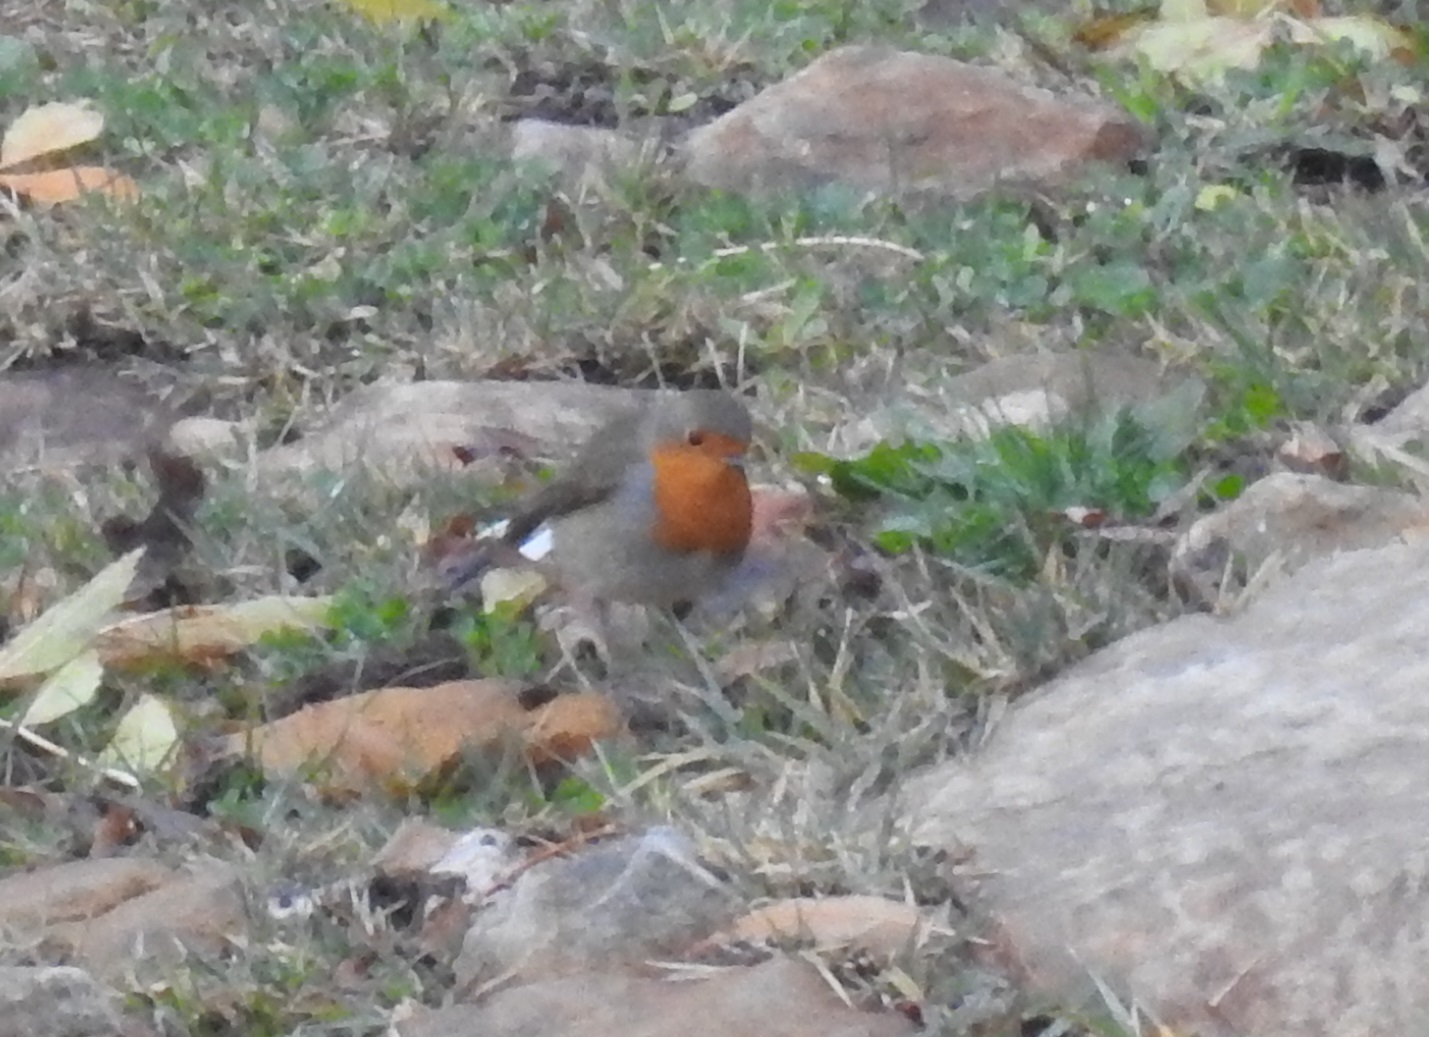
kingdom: Animalia
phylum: Chordata
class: Aves
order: Passeriformes
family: Muscicapidae
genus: Erithacus
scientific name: Erithacus rubecula
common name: European robin
